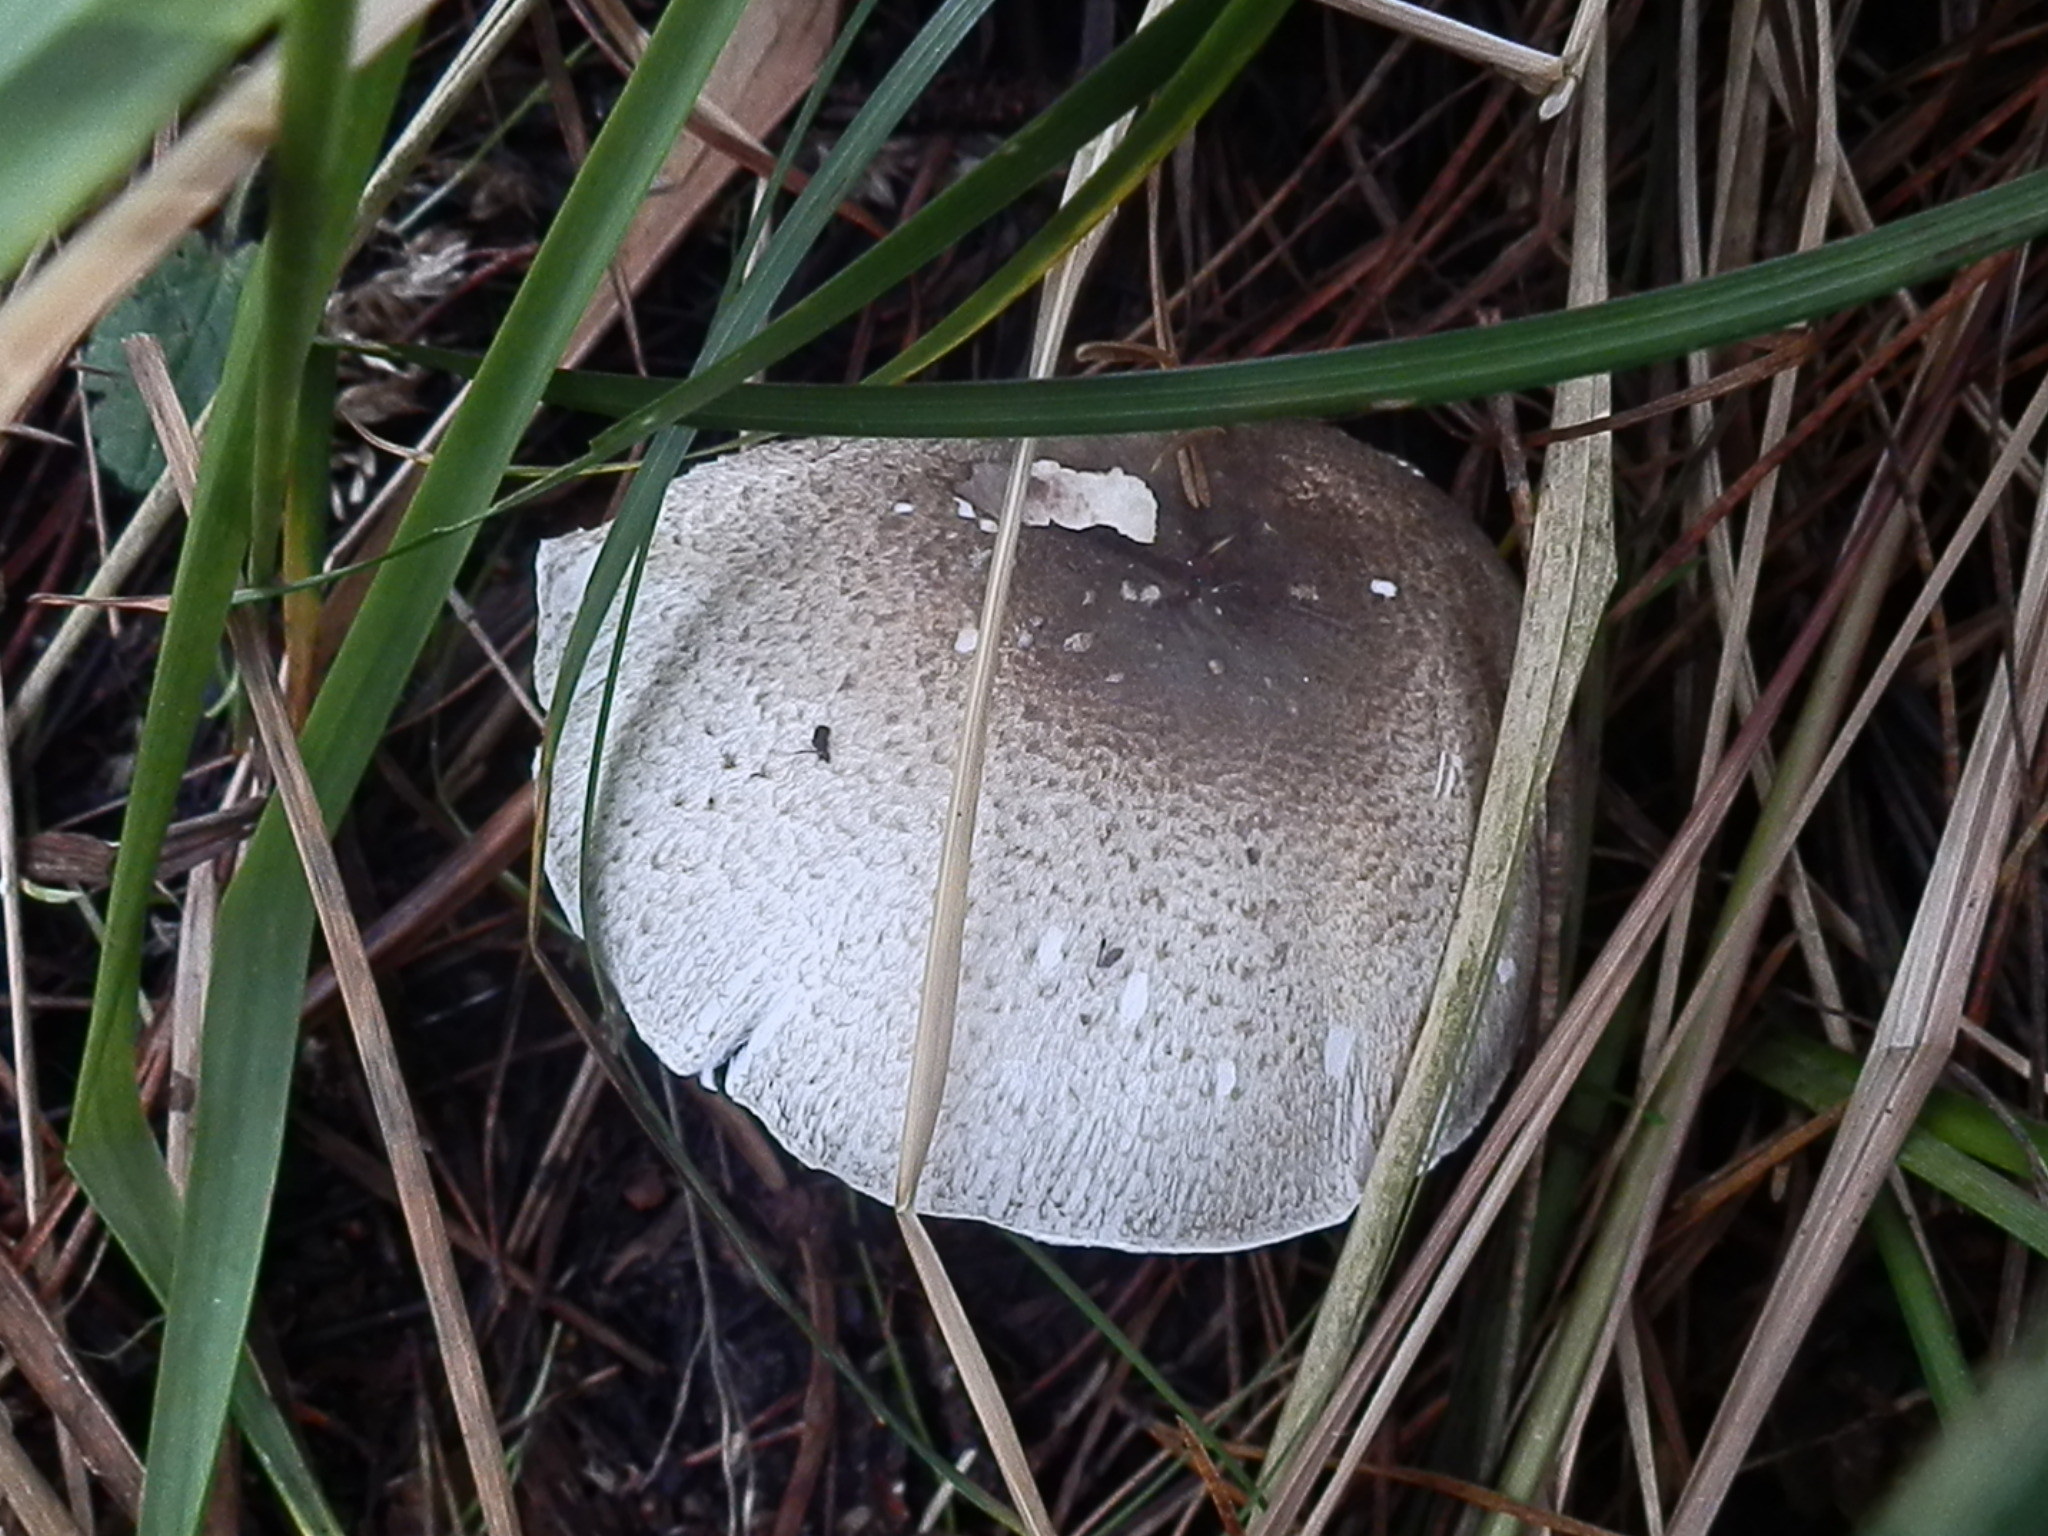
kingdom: Fungi
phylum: Basidiomycota
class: Agaricomycetes
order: Agaricales
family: Agaricaceae
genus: Agaricus
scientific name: Agaricus buckmacadooi
